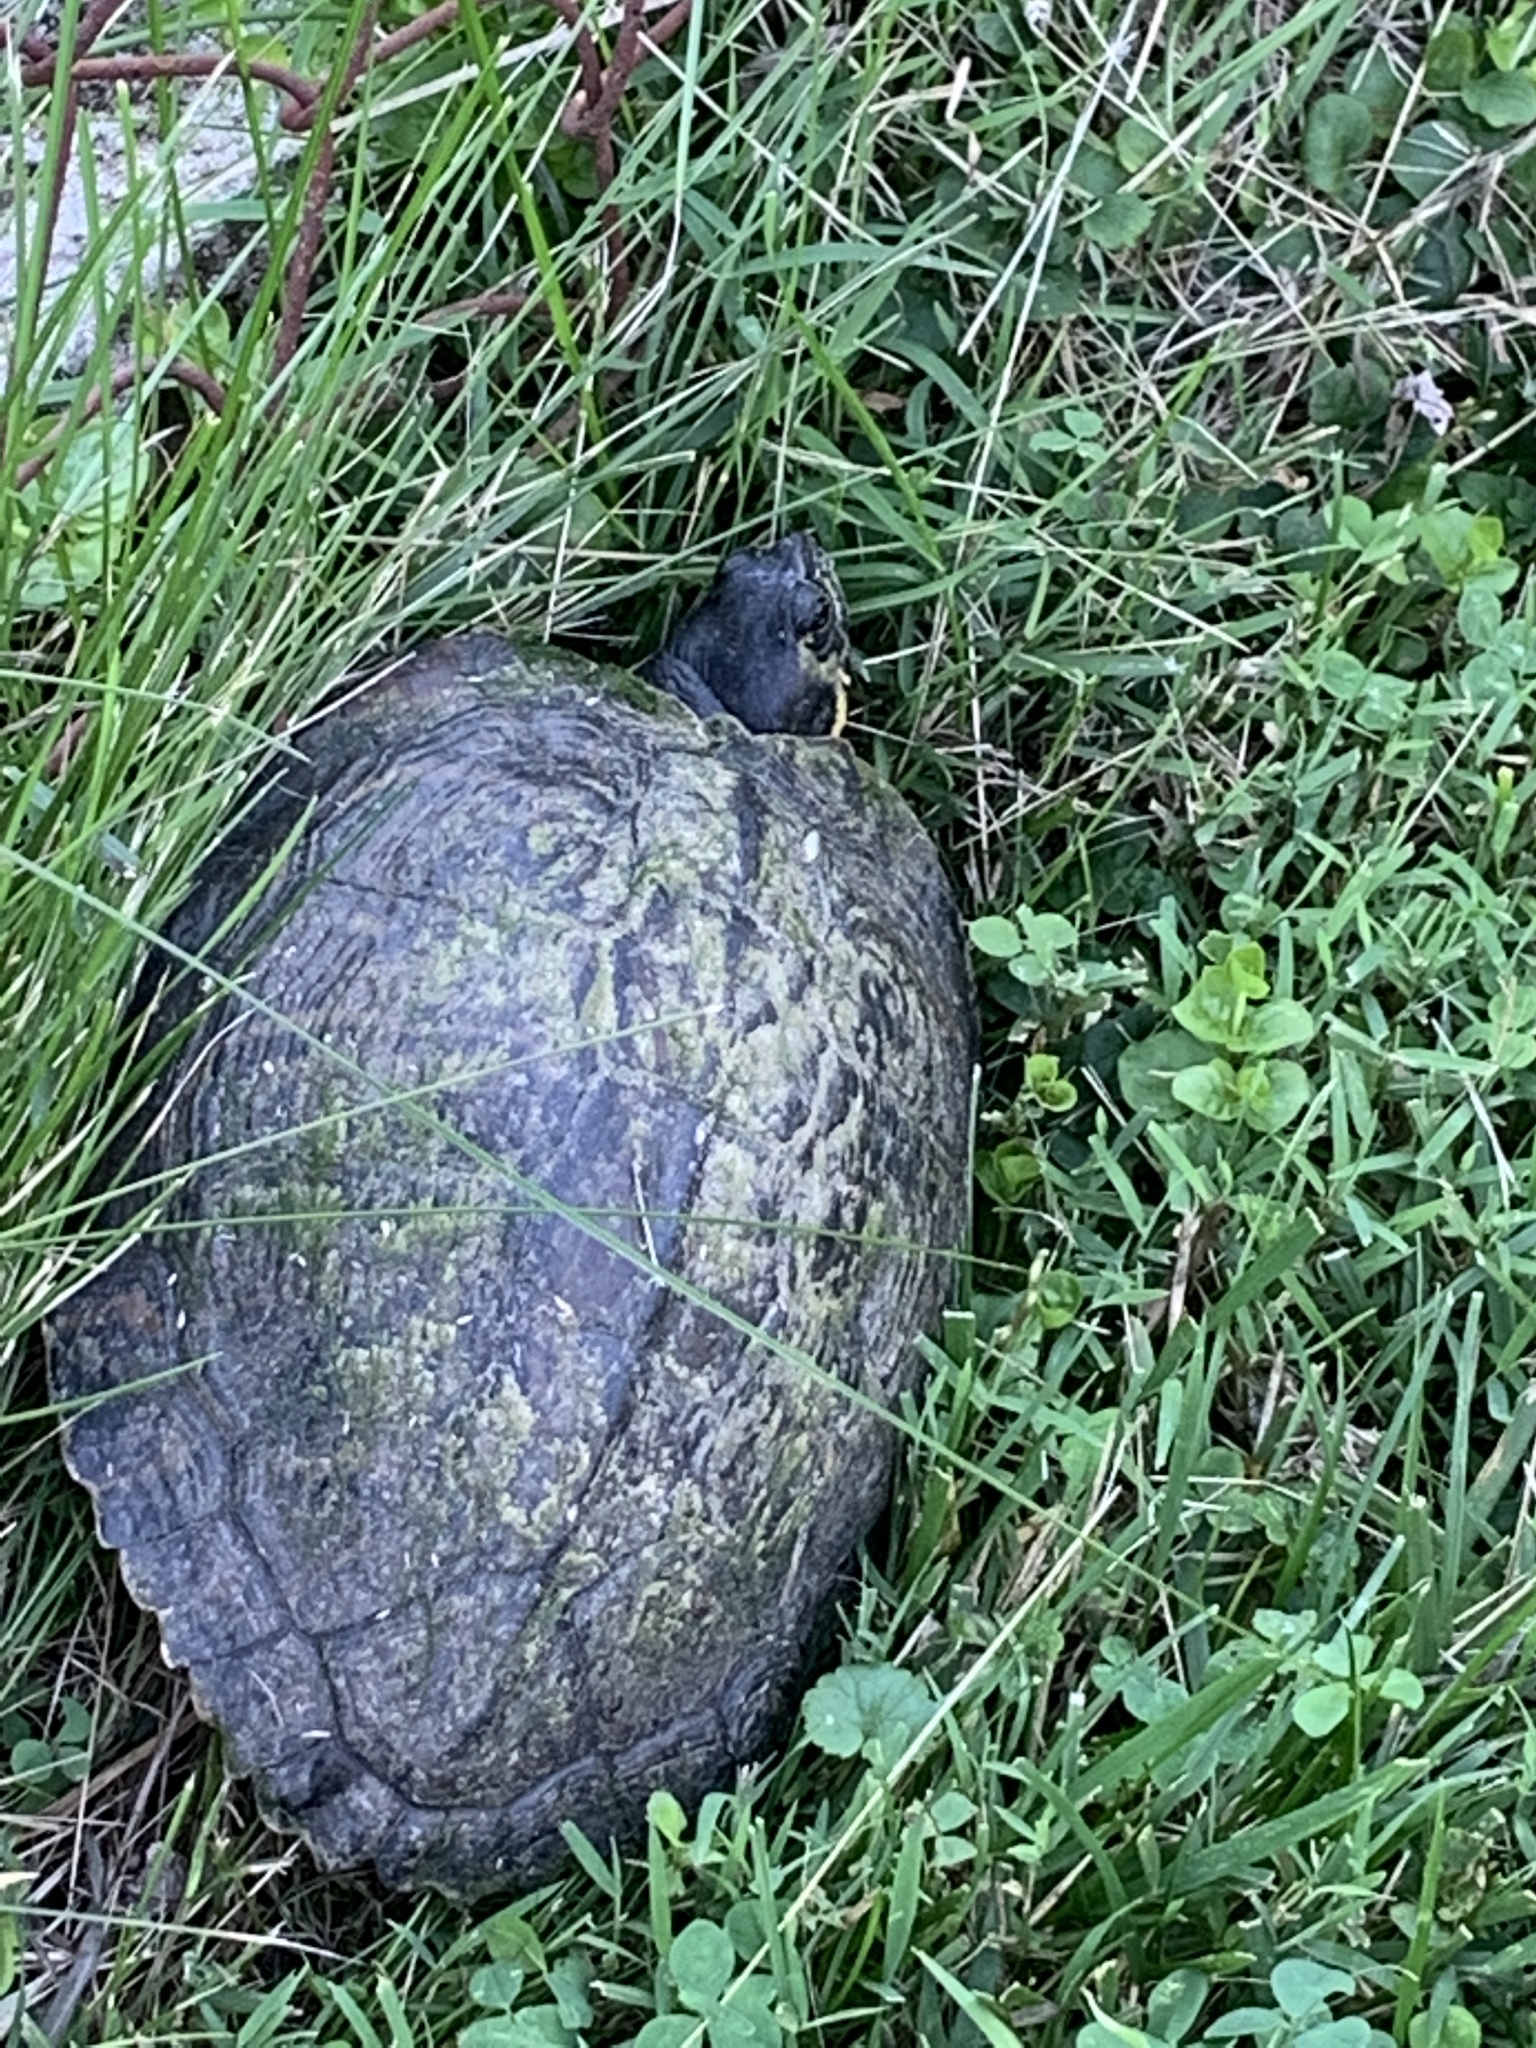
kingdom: Animalia
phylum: Chordata
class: Testudines
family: Emydidae
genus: Trachemys
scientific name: Trachemys scripta
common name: Slider
